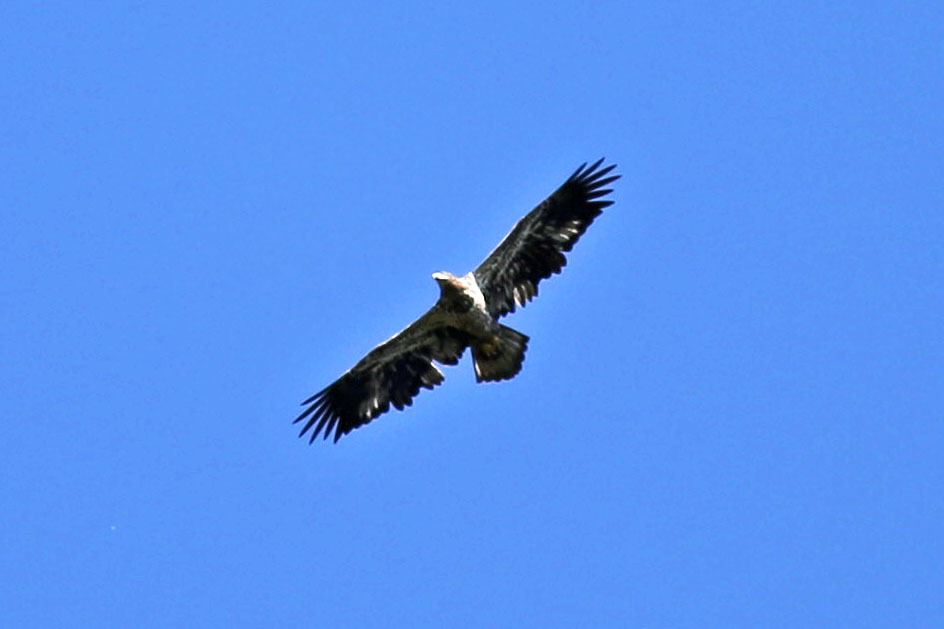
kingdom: Animalia
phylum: Chordata
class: Aves
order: Accipitriformes
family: Accipitridae
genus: Haliaeetus
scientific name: Haliaeetus leucocephalus
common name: Bald eagle
